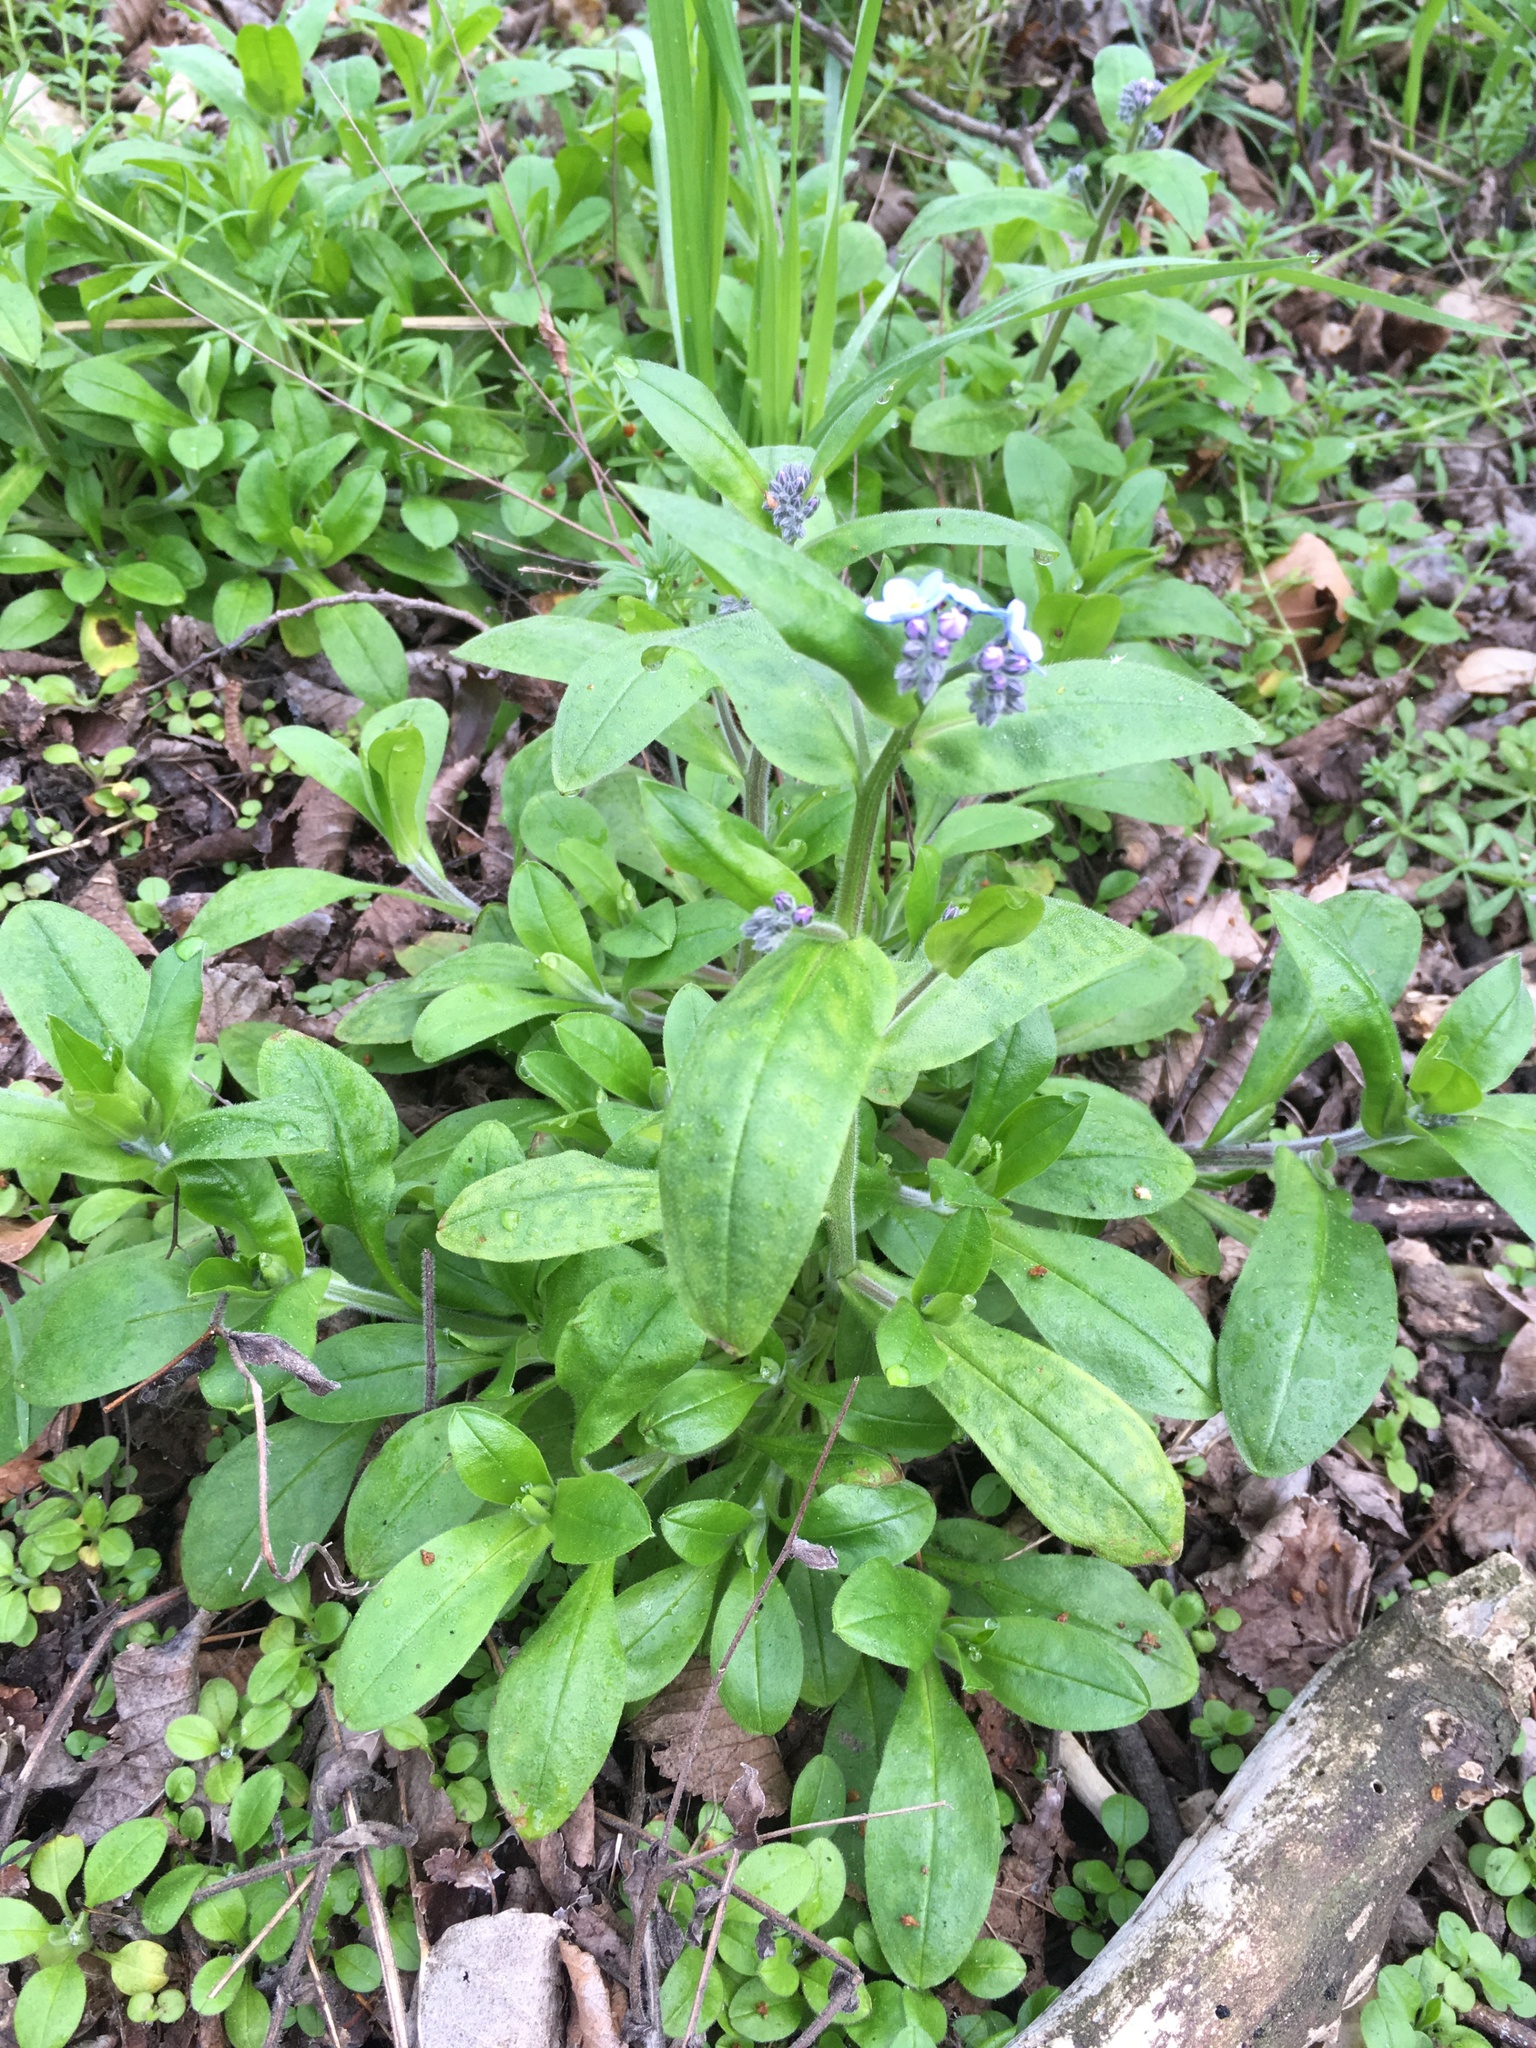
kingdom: Plantae
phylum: Tracheophyta
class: Magnoliopsida
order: Boraginales
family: Boraginaceae
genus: Myosotis
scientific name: Myosotis sylvatica
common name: Wood forget-me-not
